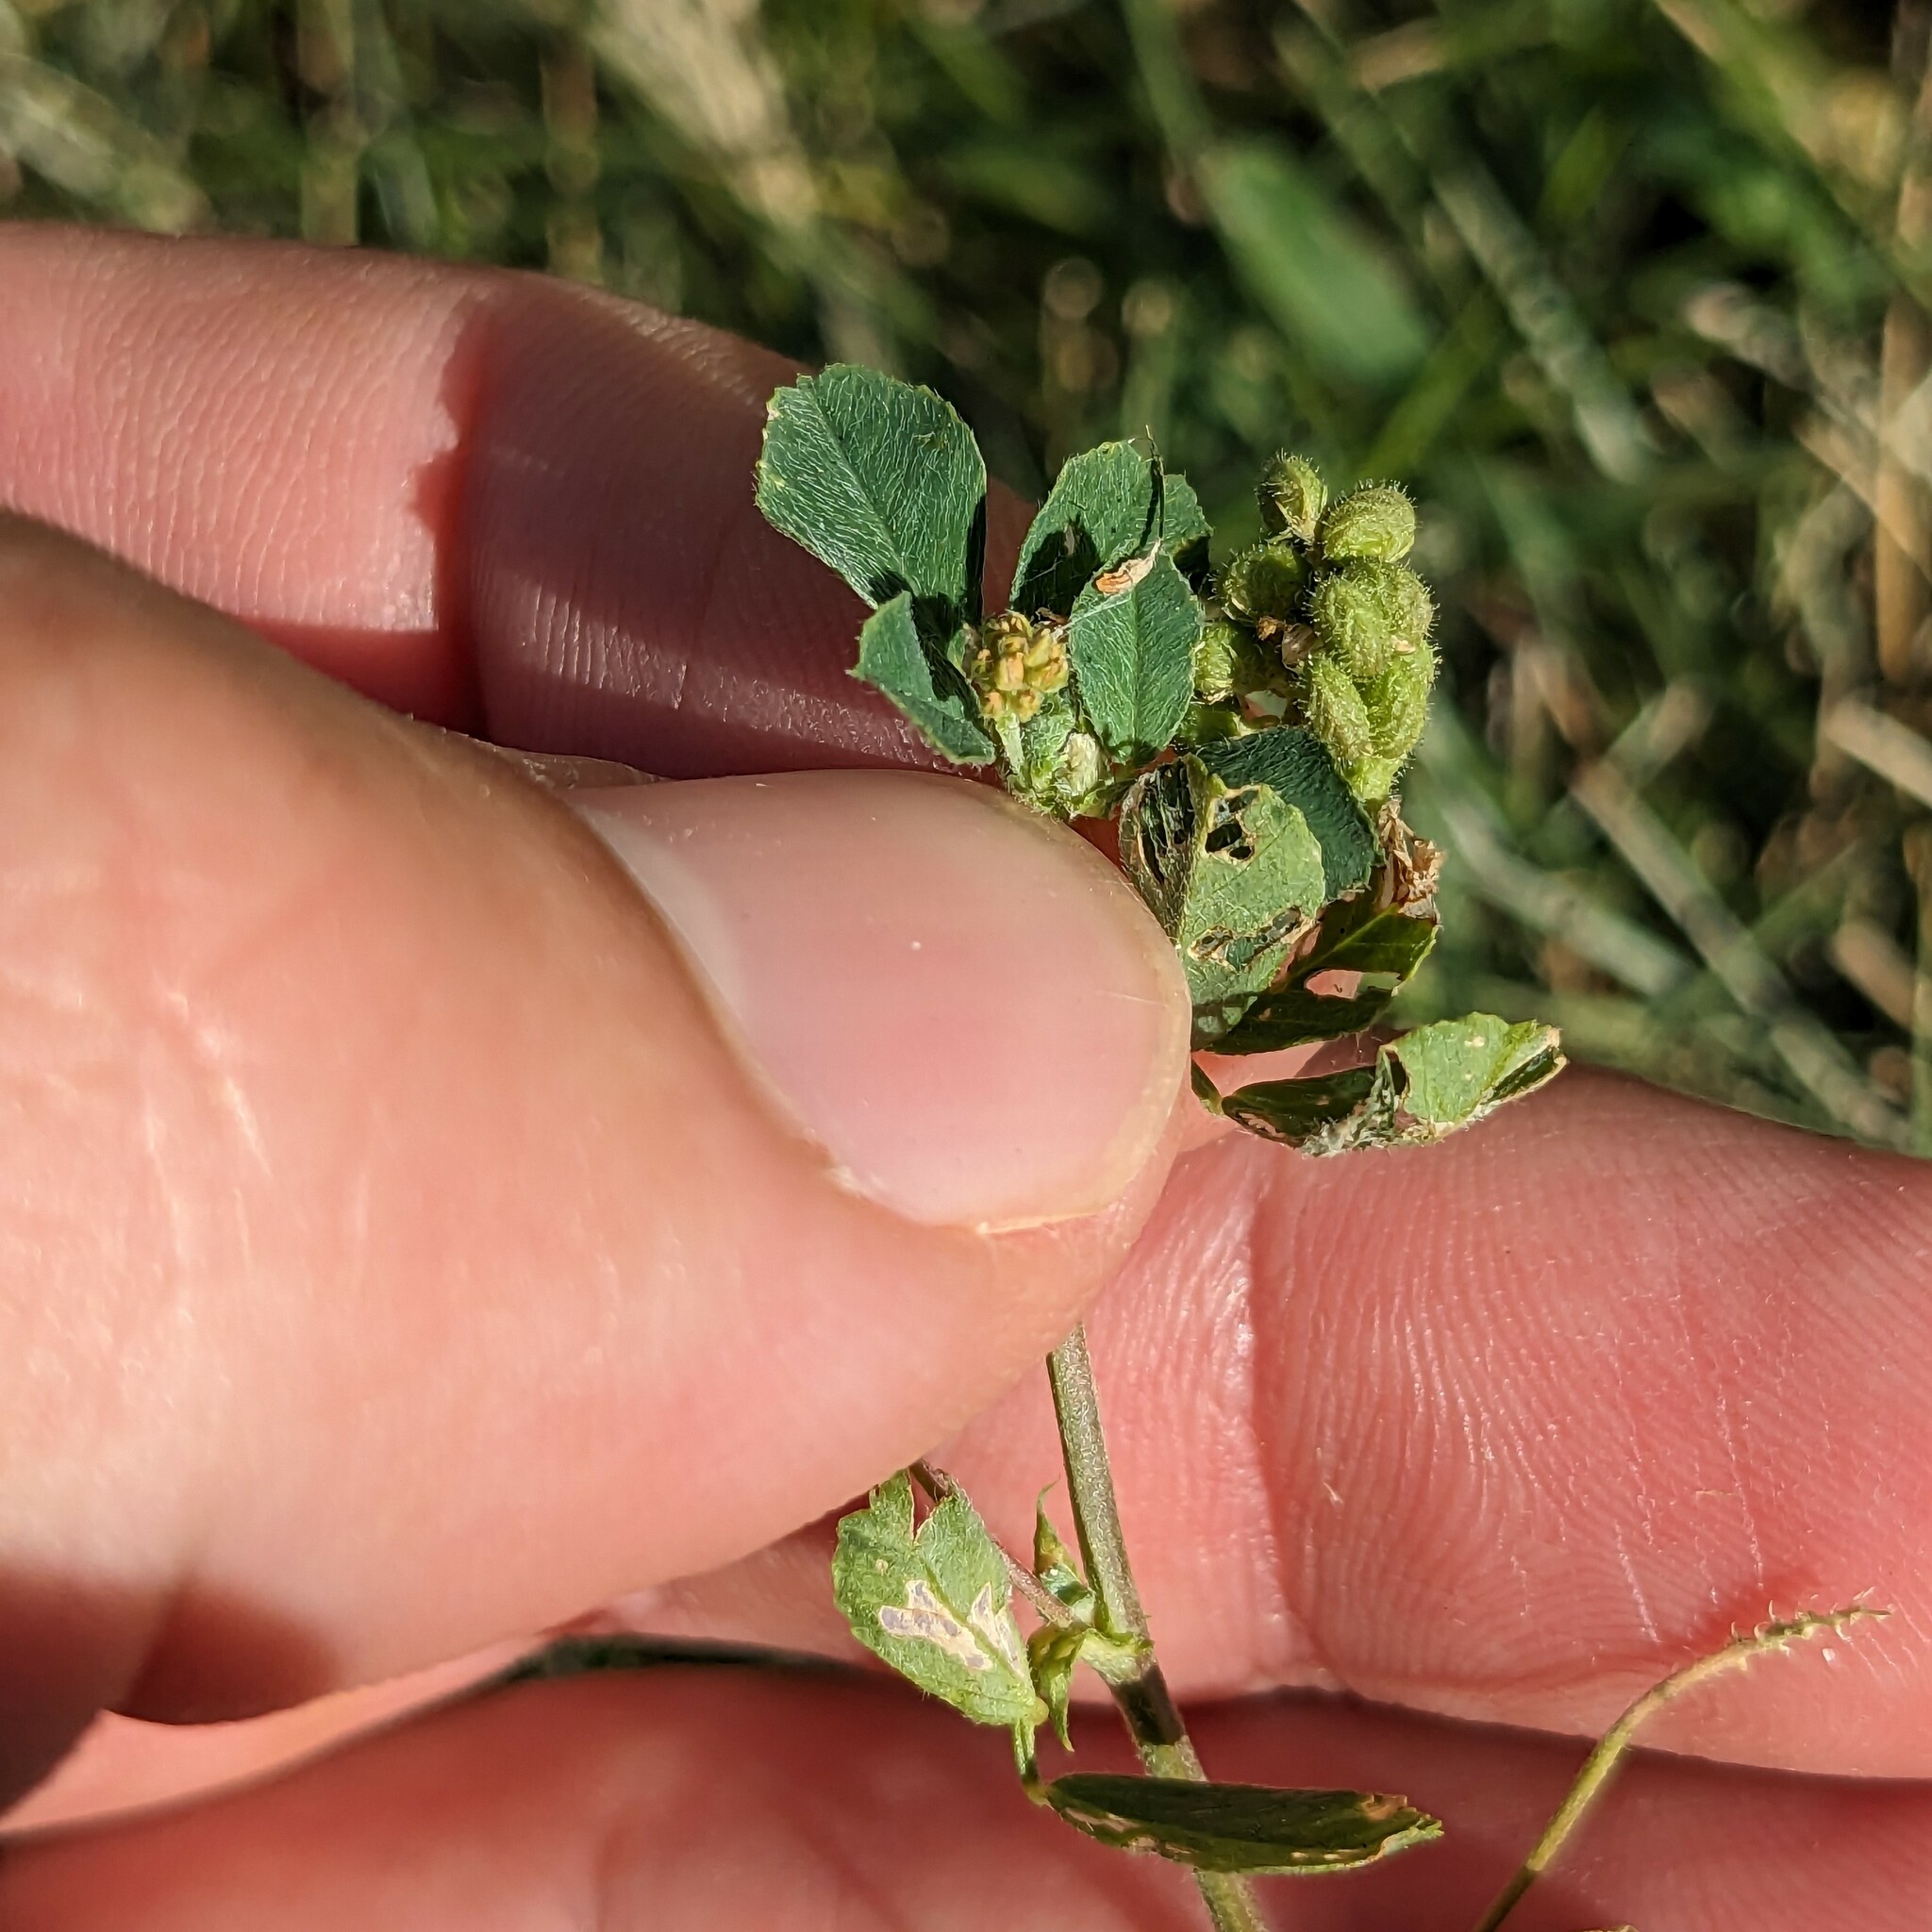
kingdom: Plantae
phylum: Tracheophyta
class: Magnoliopsida
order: Fabales
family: Fabaceae
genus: Medicago
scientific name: Medicago lupulina
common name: Black medick
